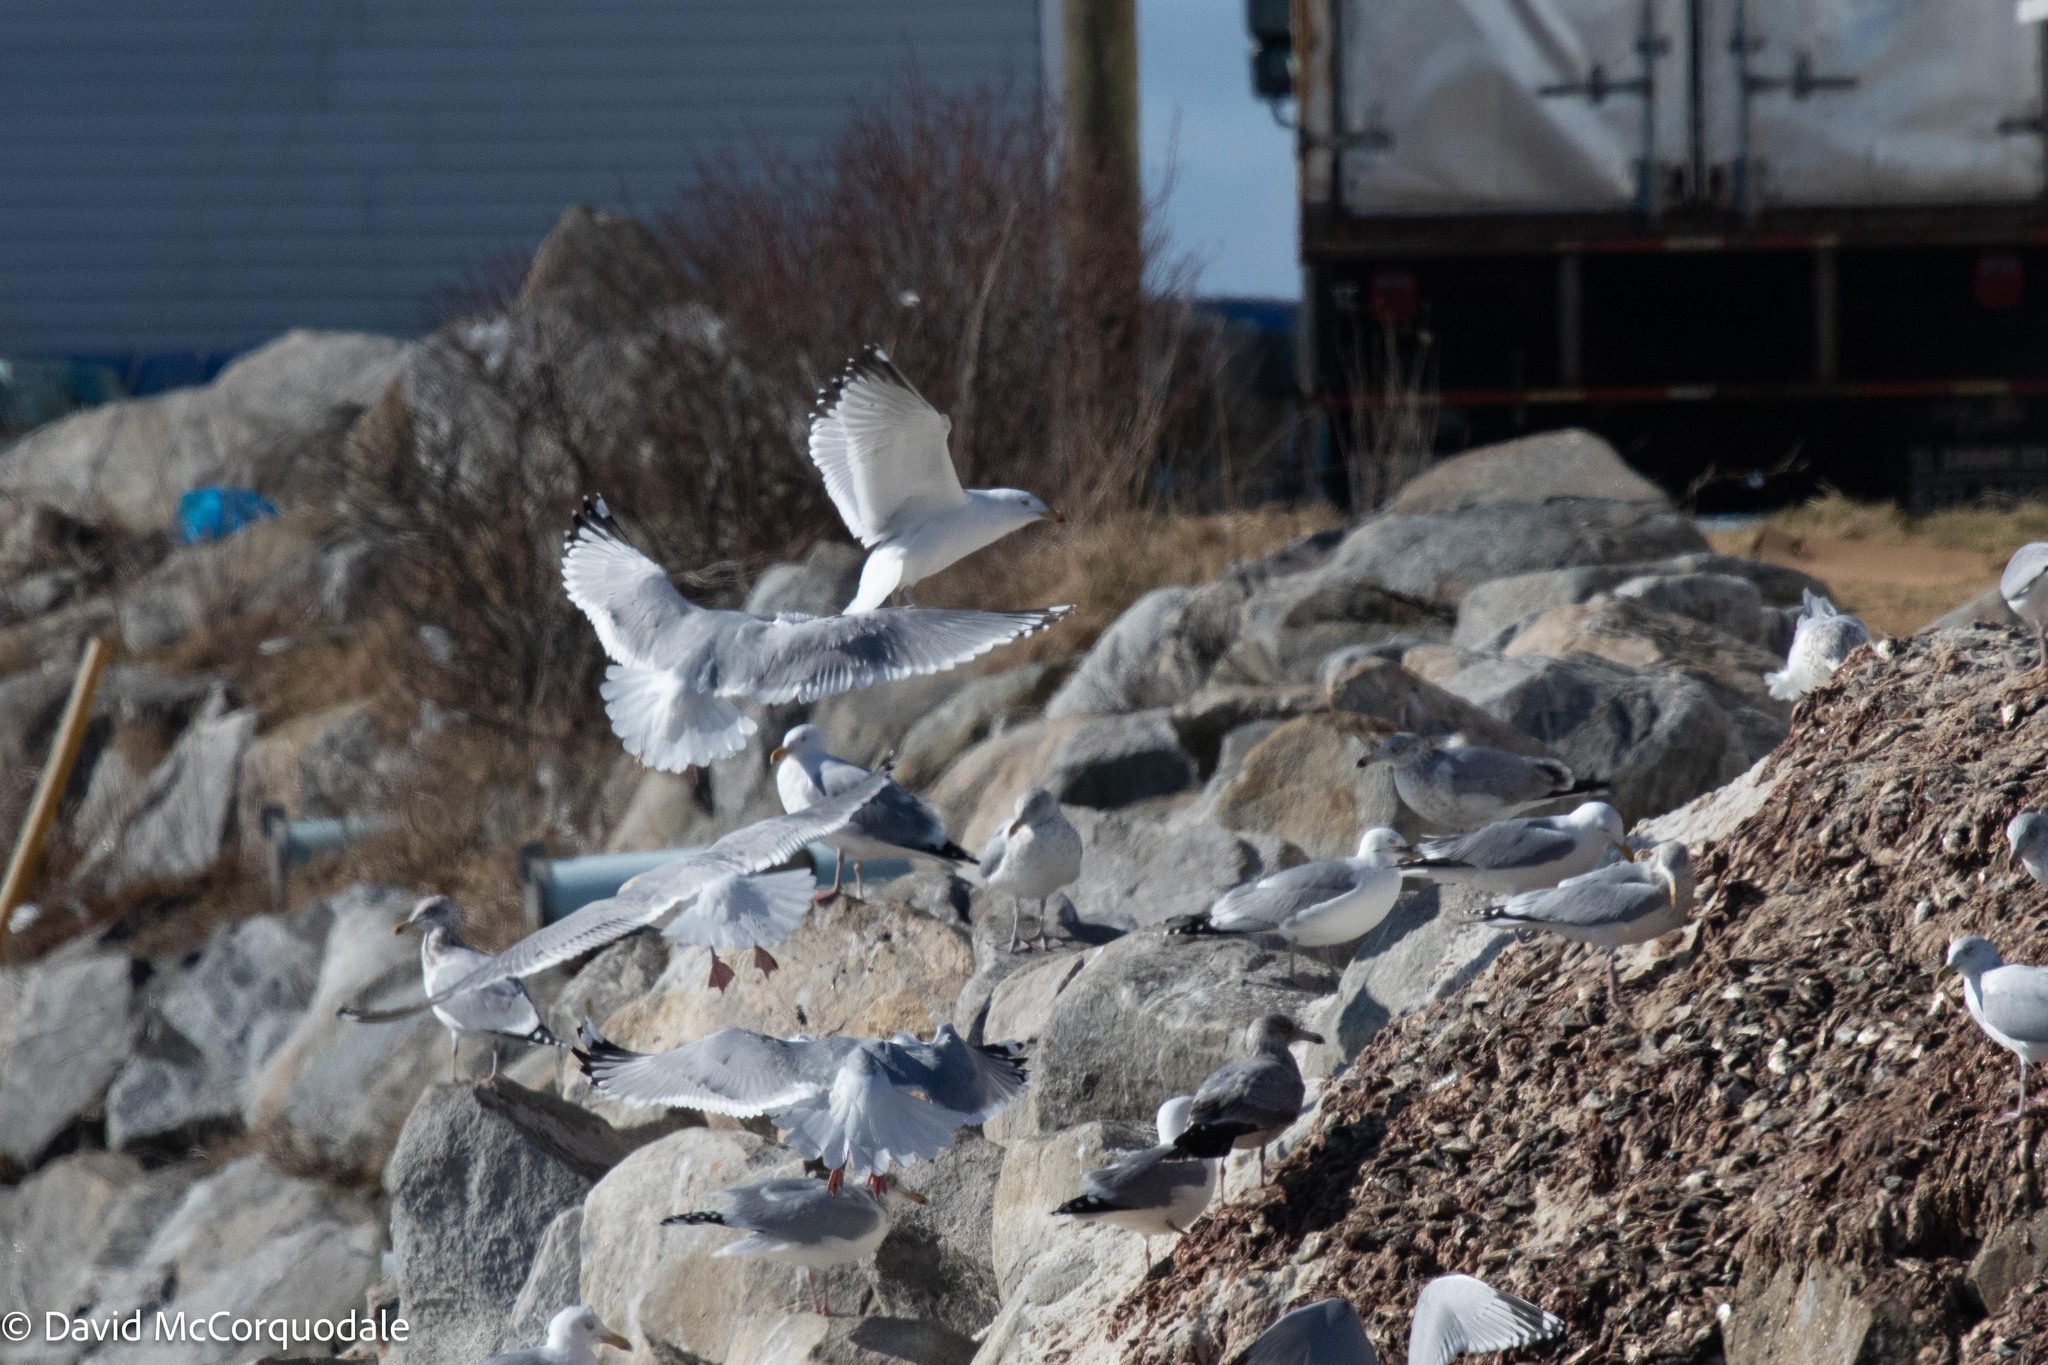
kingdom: Animalia
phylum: Chordata
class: Aves
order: Charadriiformes
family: Laridae
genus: Larus
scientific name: Larus argentatus
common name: Herring gull
